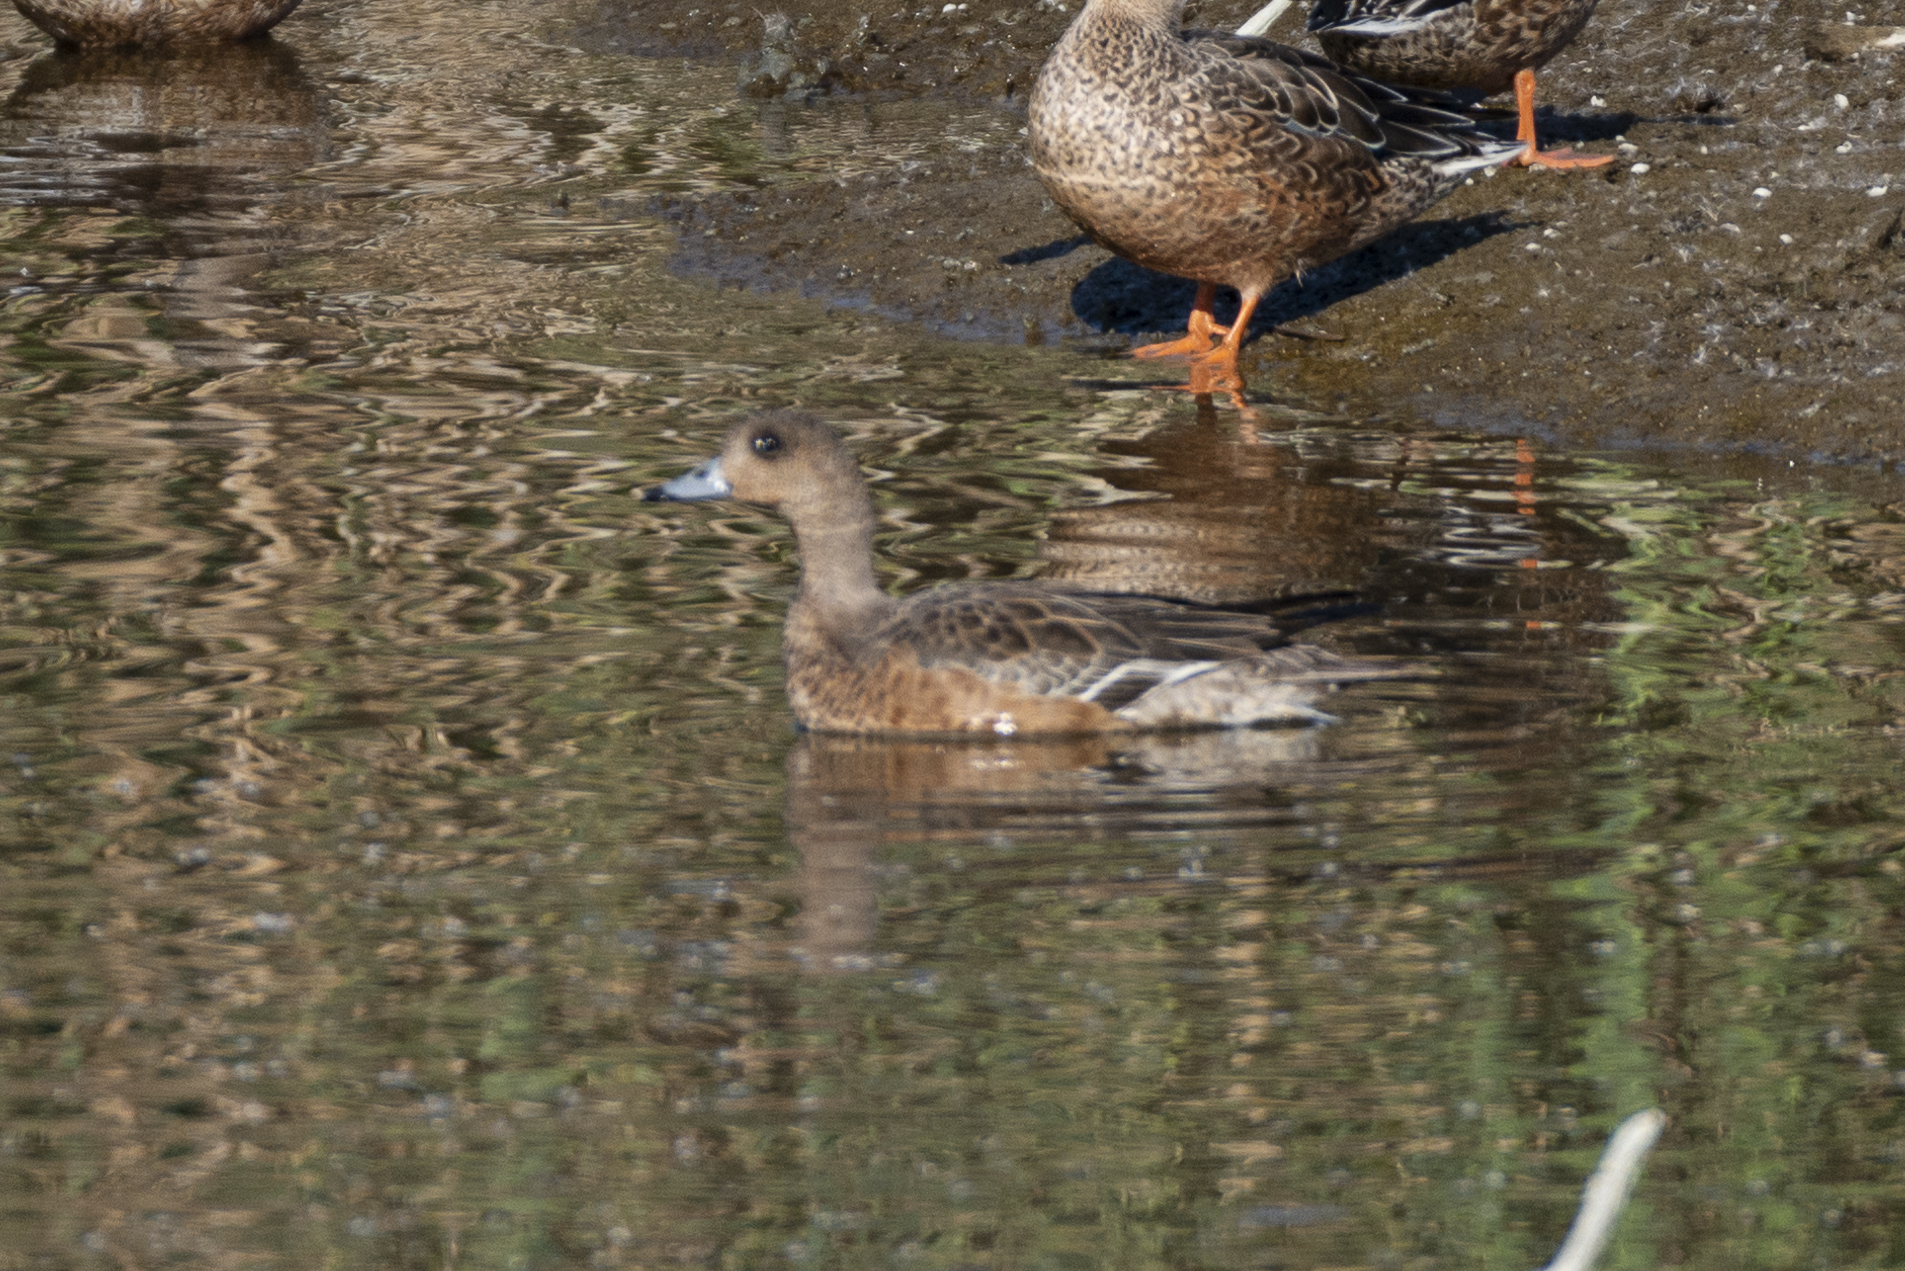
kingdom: Animalia
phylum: Chordata
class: Aves
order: Anseriformes
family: Anatidae
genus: Mareca
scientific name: Mareca penelope
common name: Eurasian wigeon
